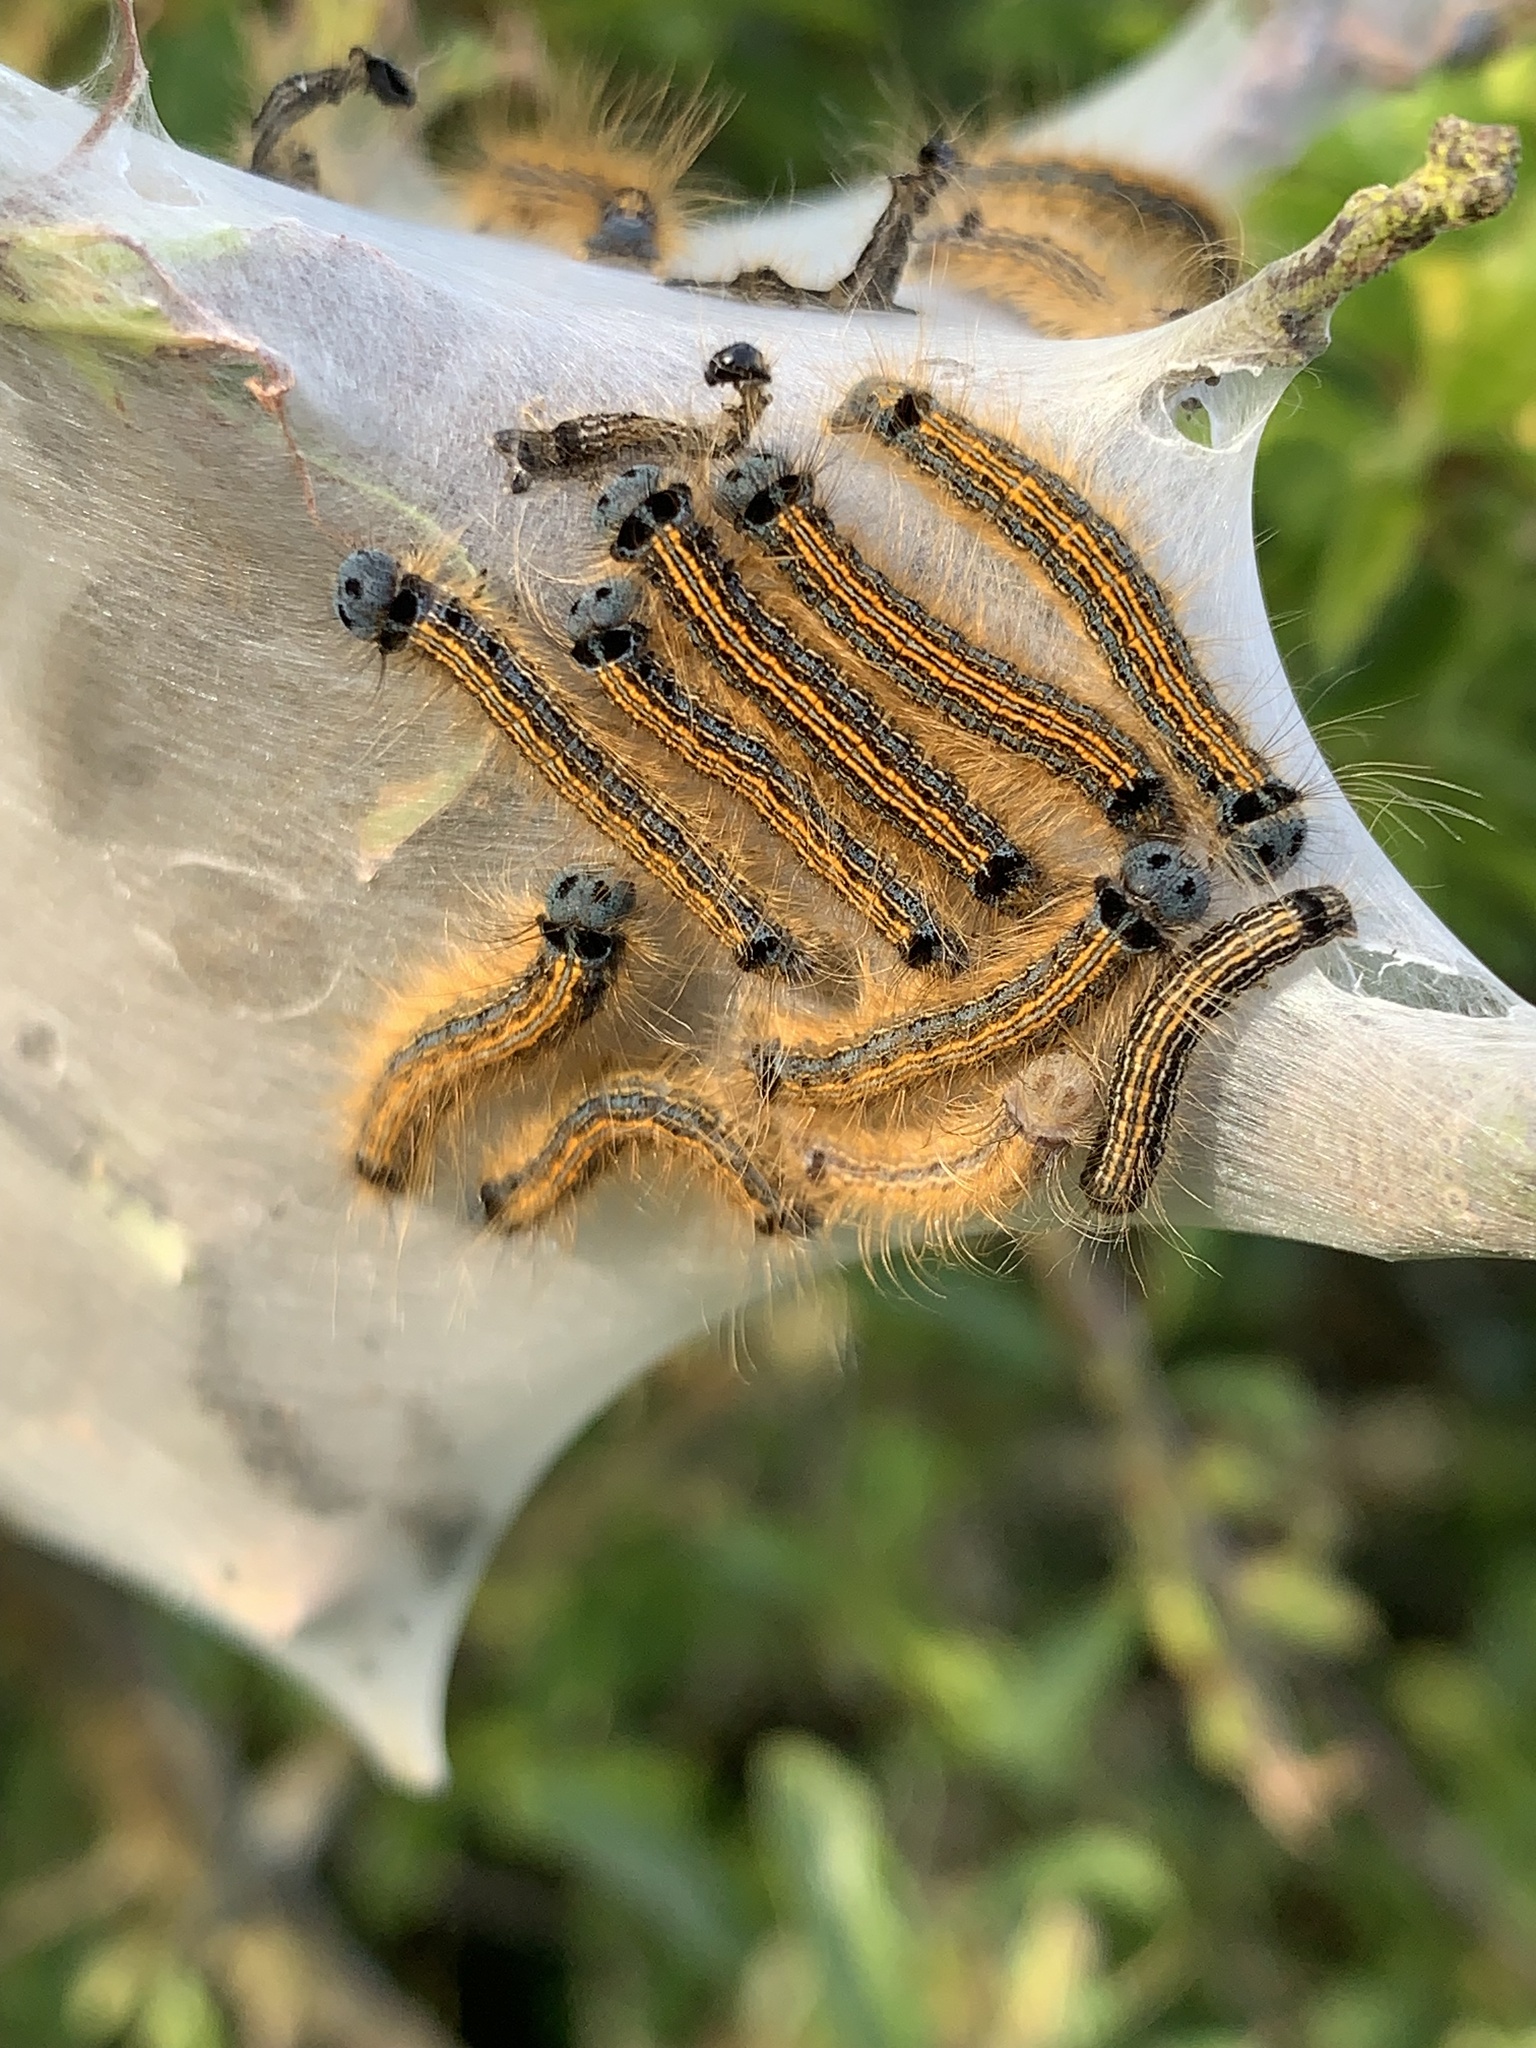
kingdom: Animalia
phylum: Arthropoda
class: Insecta
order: Lepidoptera
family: Lasiocampidae
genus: Malacosoma
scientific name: Malacosoma neustria
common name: The lackey
